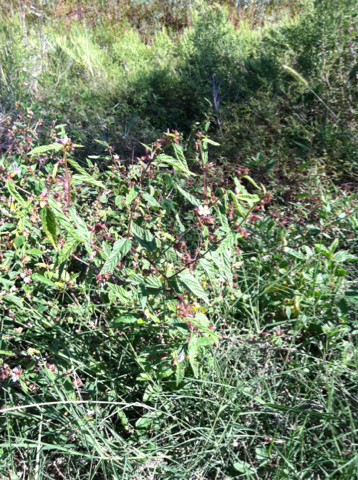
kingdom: Plantae
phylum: Tracheophyta
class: Magnoliopsida
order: Malvales
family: Malvaceae
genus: Melochia
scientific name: Melochia pyramidata
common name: Pyramidflower
